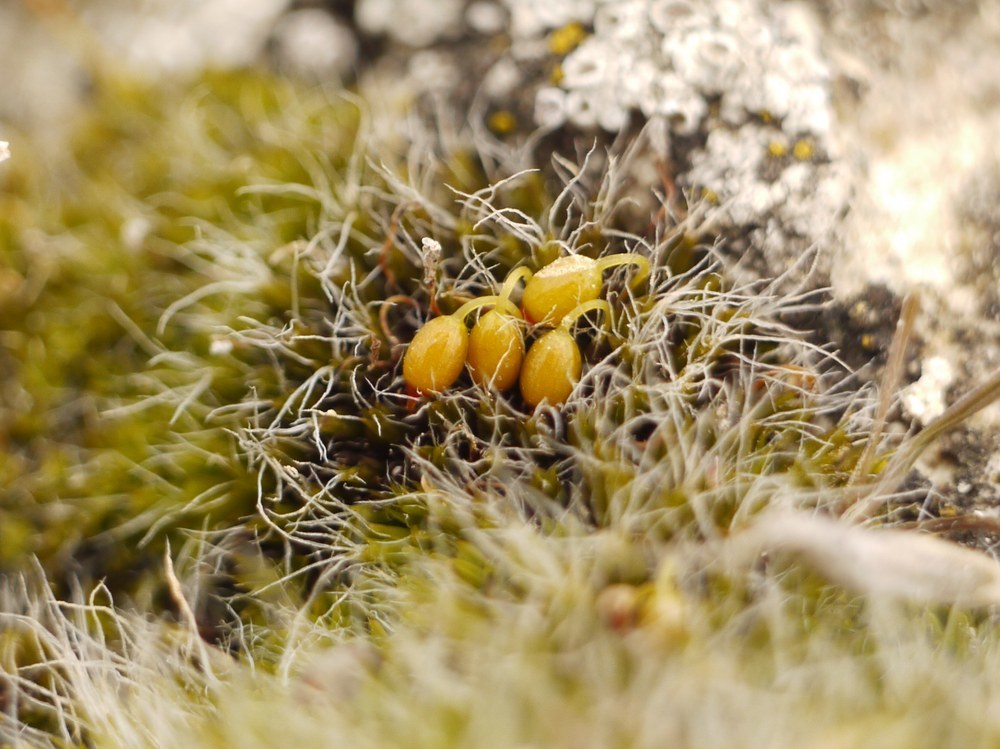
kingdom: Plantae
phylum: Bryophyta
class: Bryopsida
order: Grimmiales
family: Grimmiaceae
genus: Grimmia
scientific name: Grimmia pulvinata
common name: Grey-cushioned grimmia
